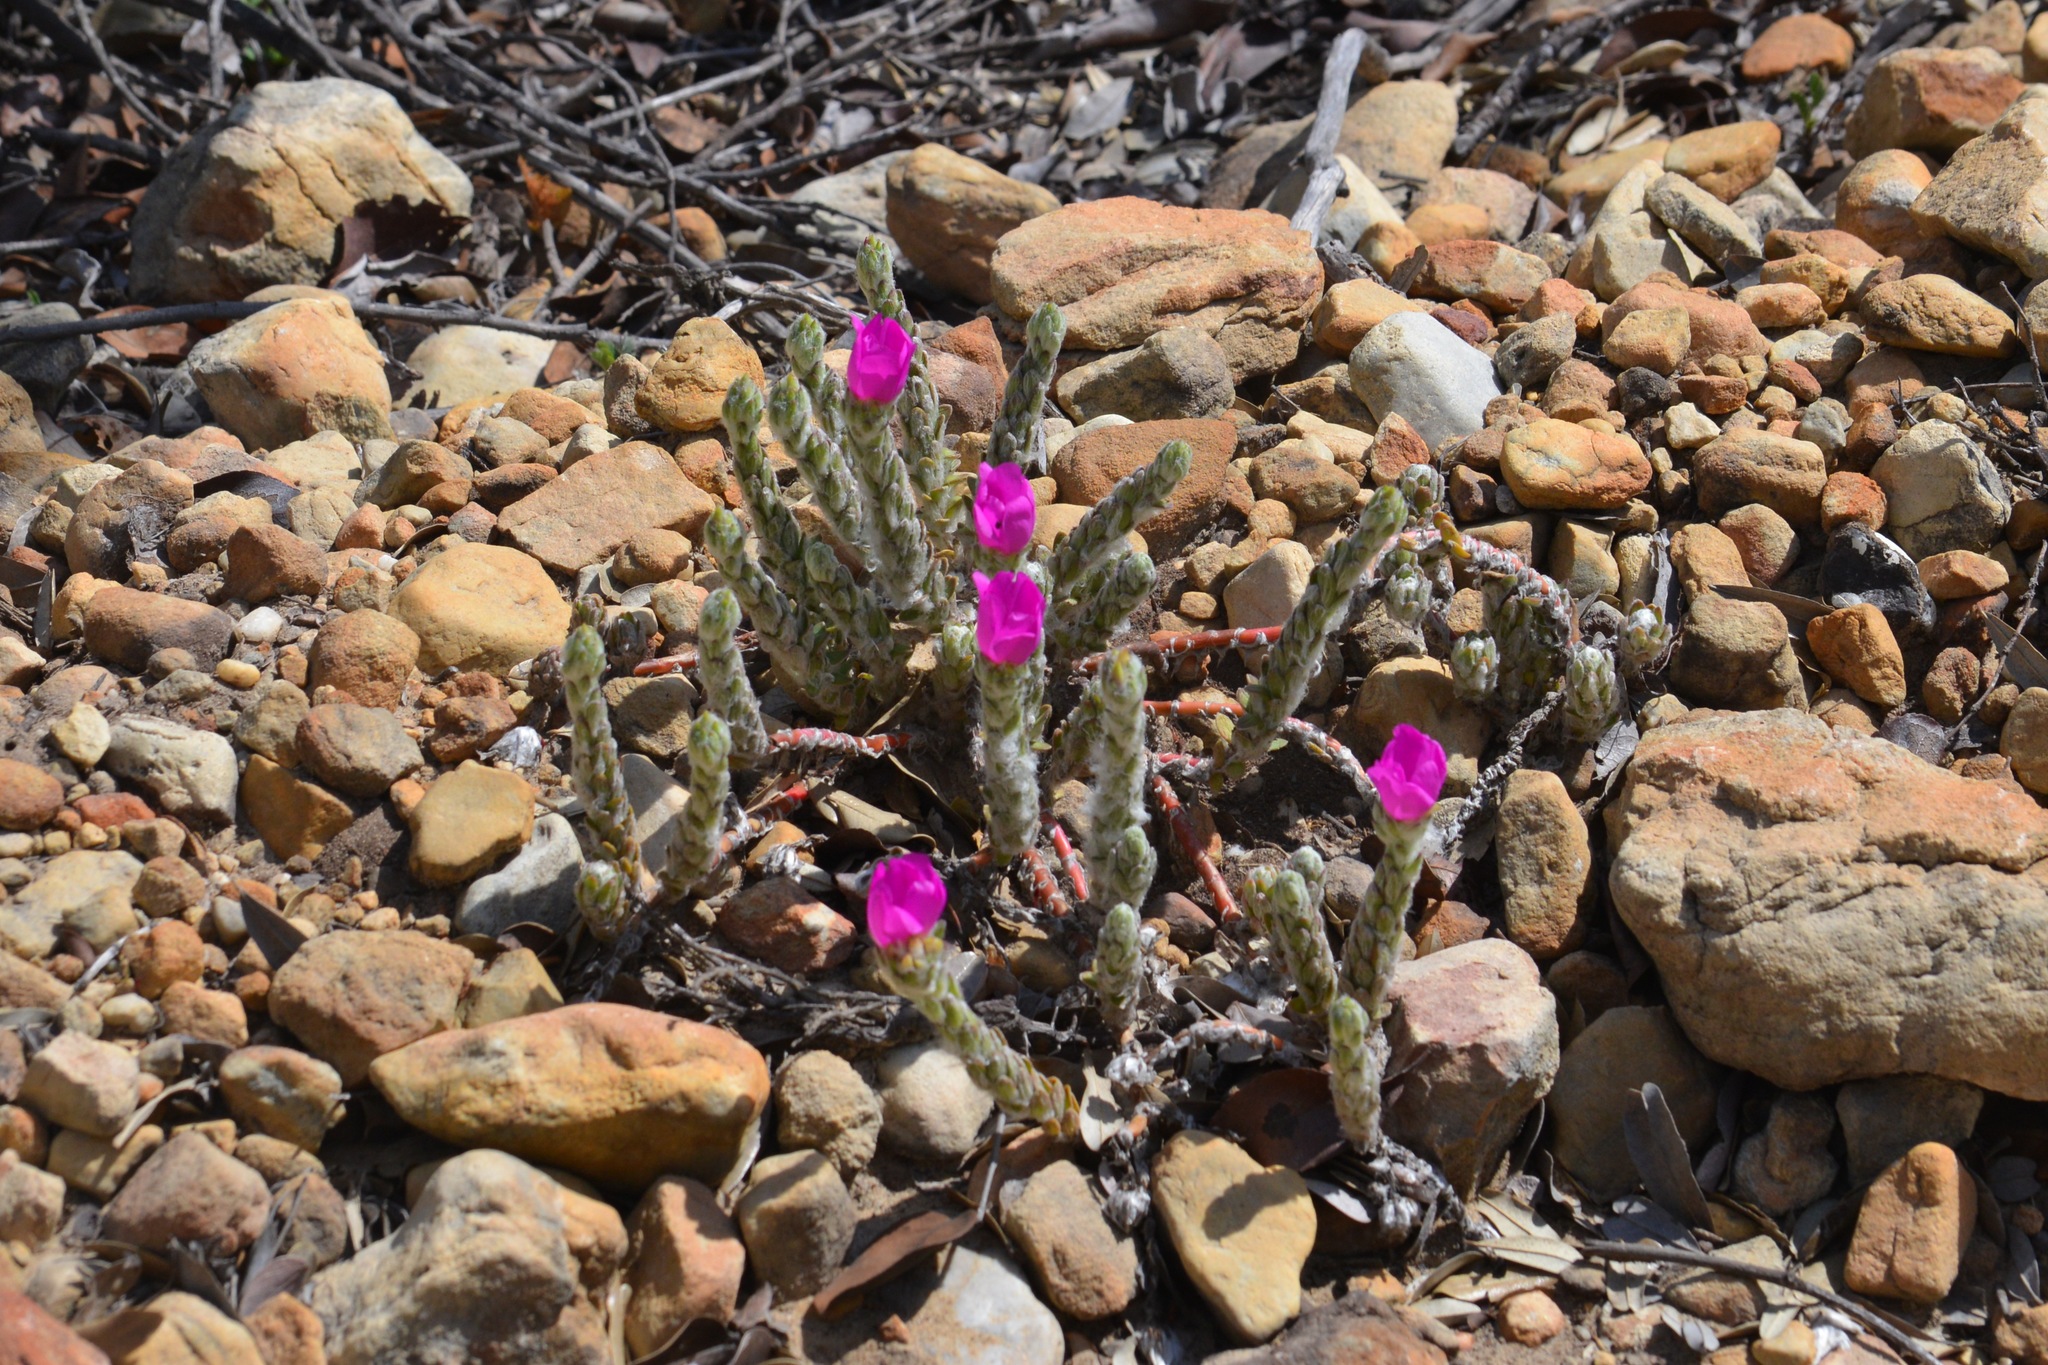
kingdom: Plantae
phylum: Tracheophyta
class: Magnoliopsida
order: Caryophyllales
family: Portulacaceae
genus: Portulaca
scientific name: Portulaca giuliettiae
